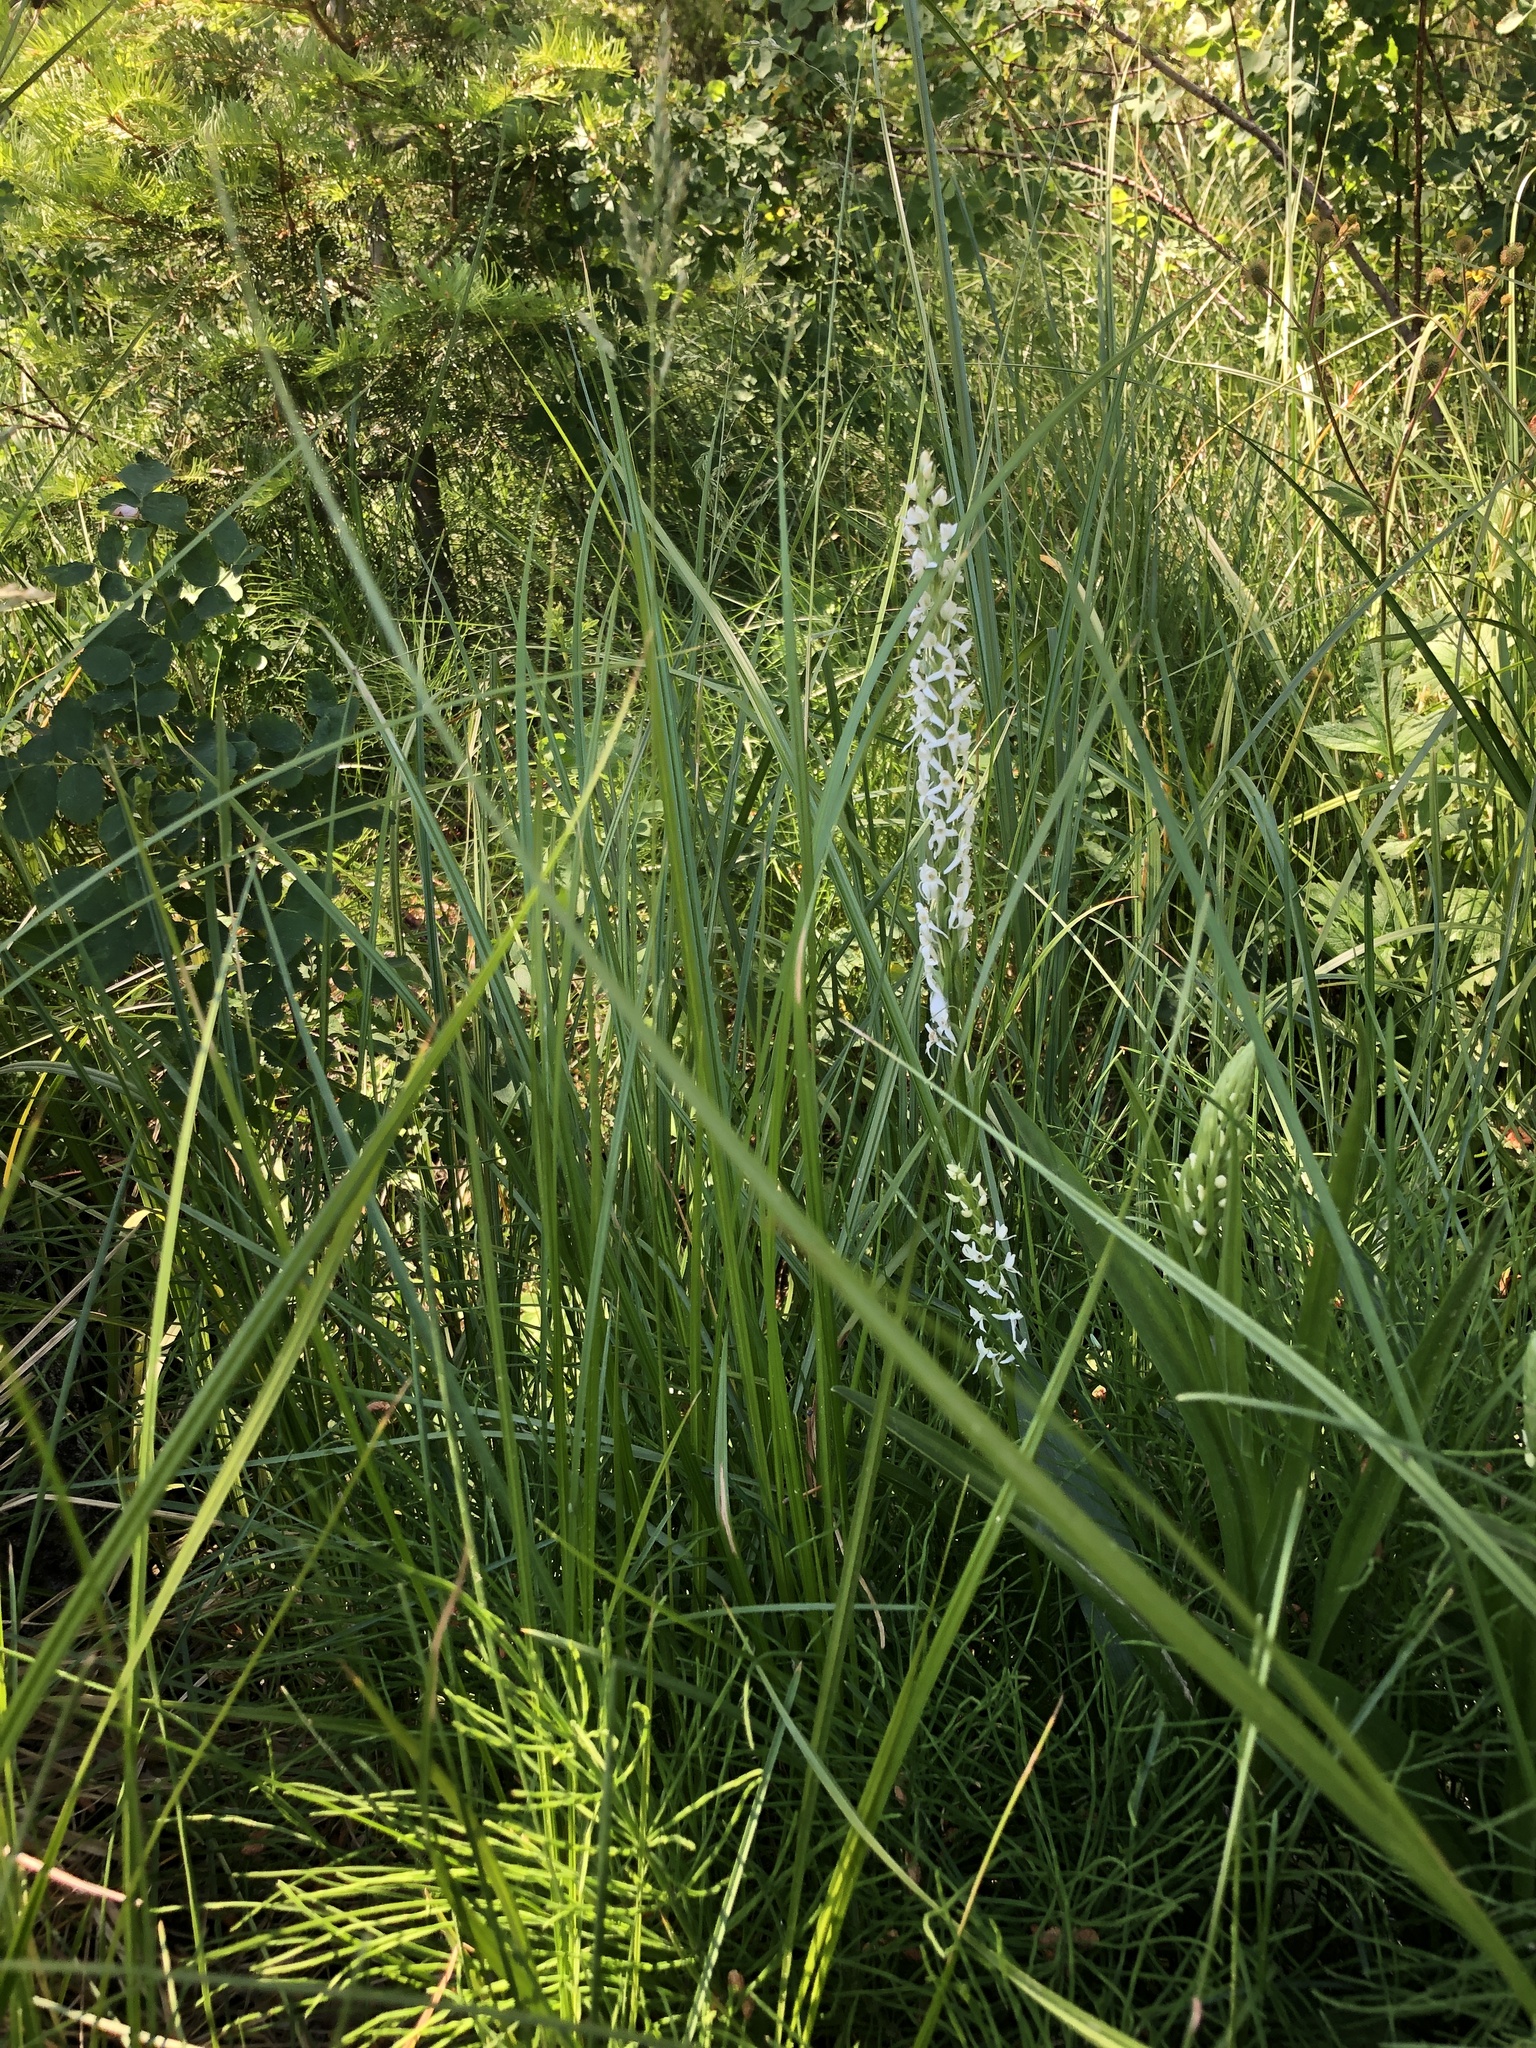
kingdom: Plantae
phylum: Tracheophyta
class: Liliopsida
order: Asparagales
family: Orchidaceae
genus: Platanthera
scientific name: Platanthera dilatata
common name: Bog candles
